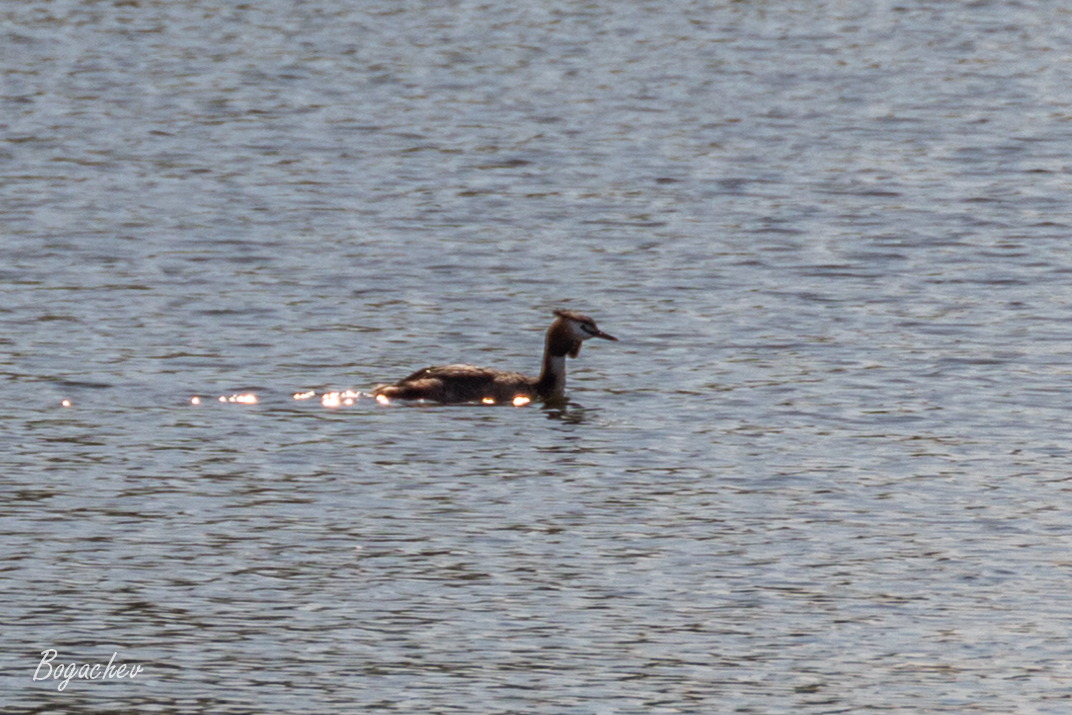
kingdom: Animalia
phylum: Chordata
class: Aves
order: Podicipediformes
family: Podicipedidae
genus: Podiceps
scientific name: Podiceps cristatus
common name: Great crested grebe
